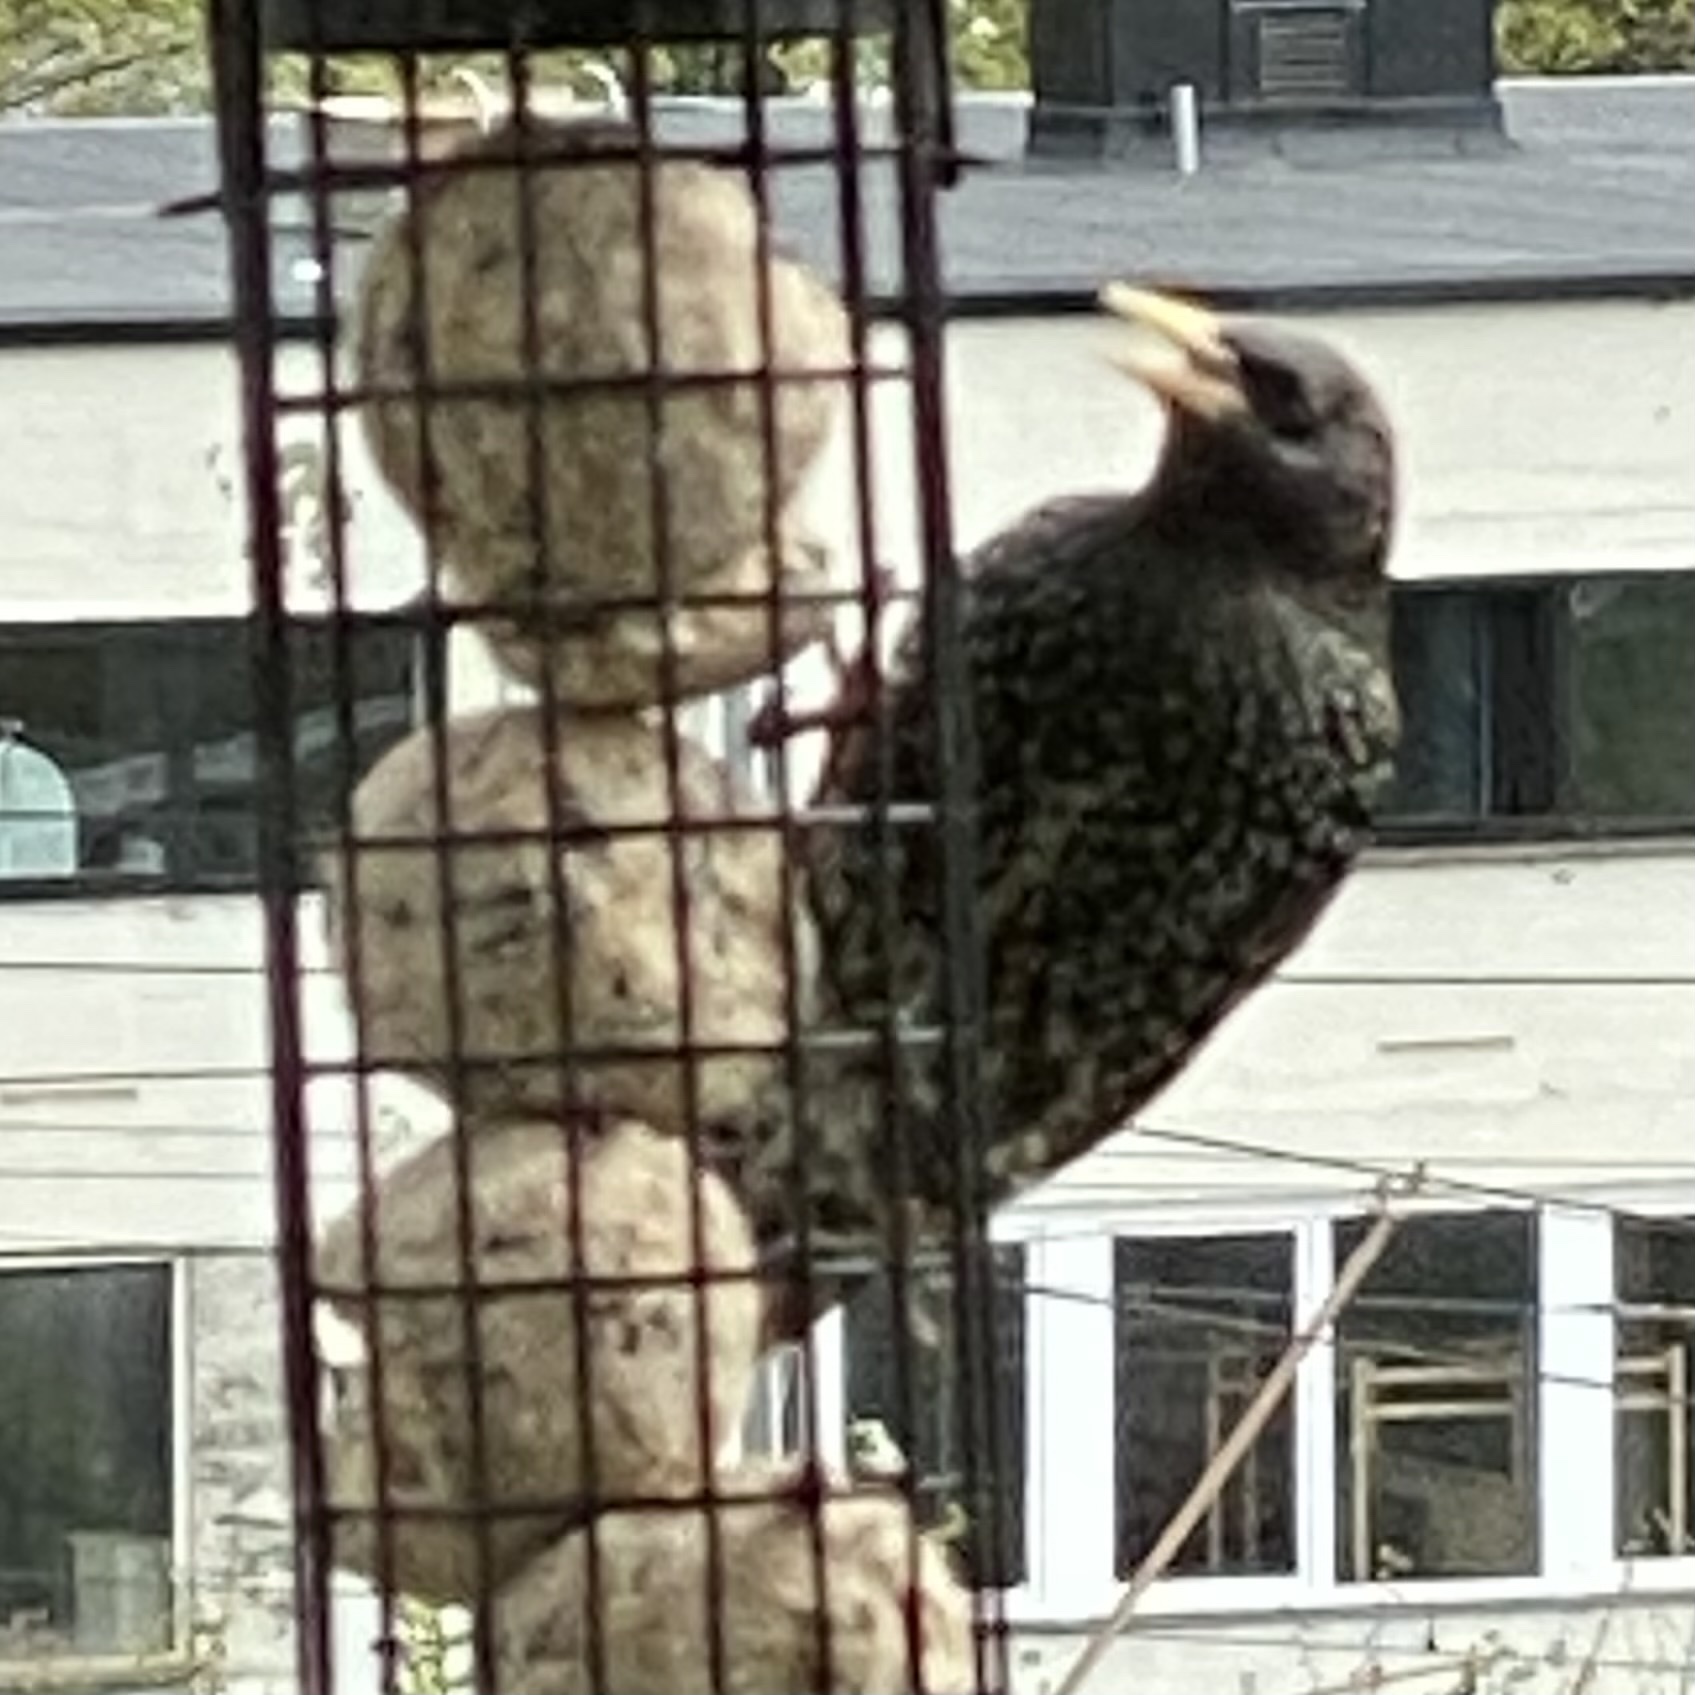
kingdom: Animalia
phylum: Chordata
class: Aves
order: Passeriformes
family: Sturnidae
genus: Sturnus
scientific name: Sturnus vulgaris
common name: Common starling
